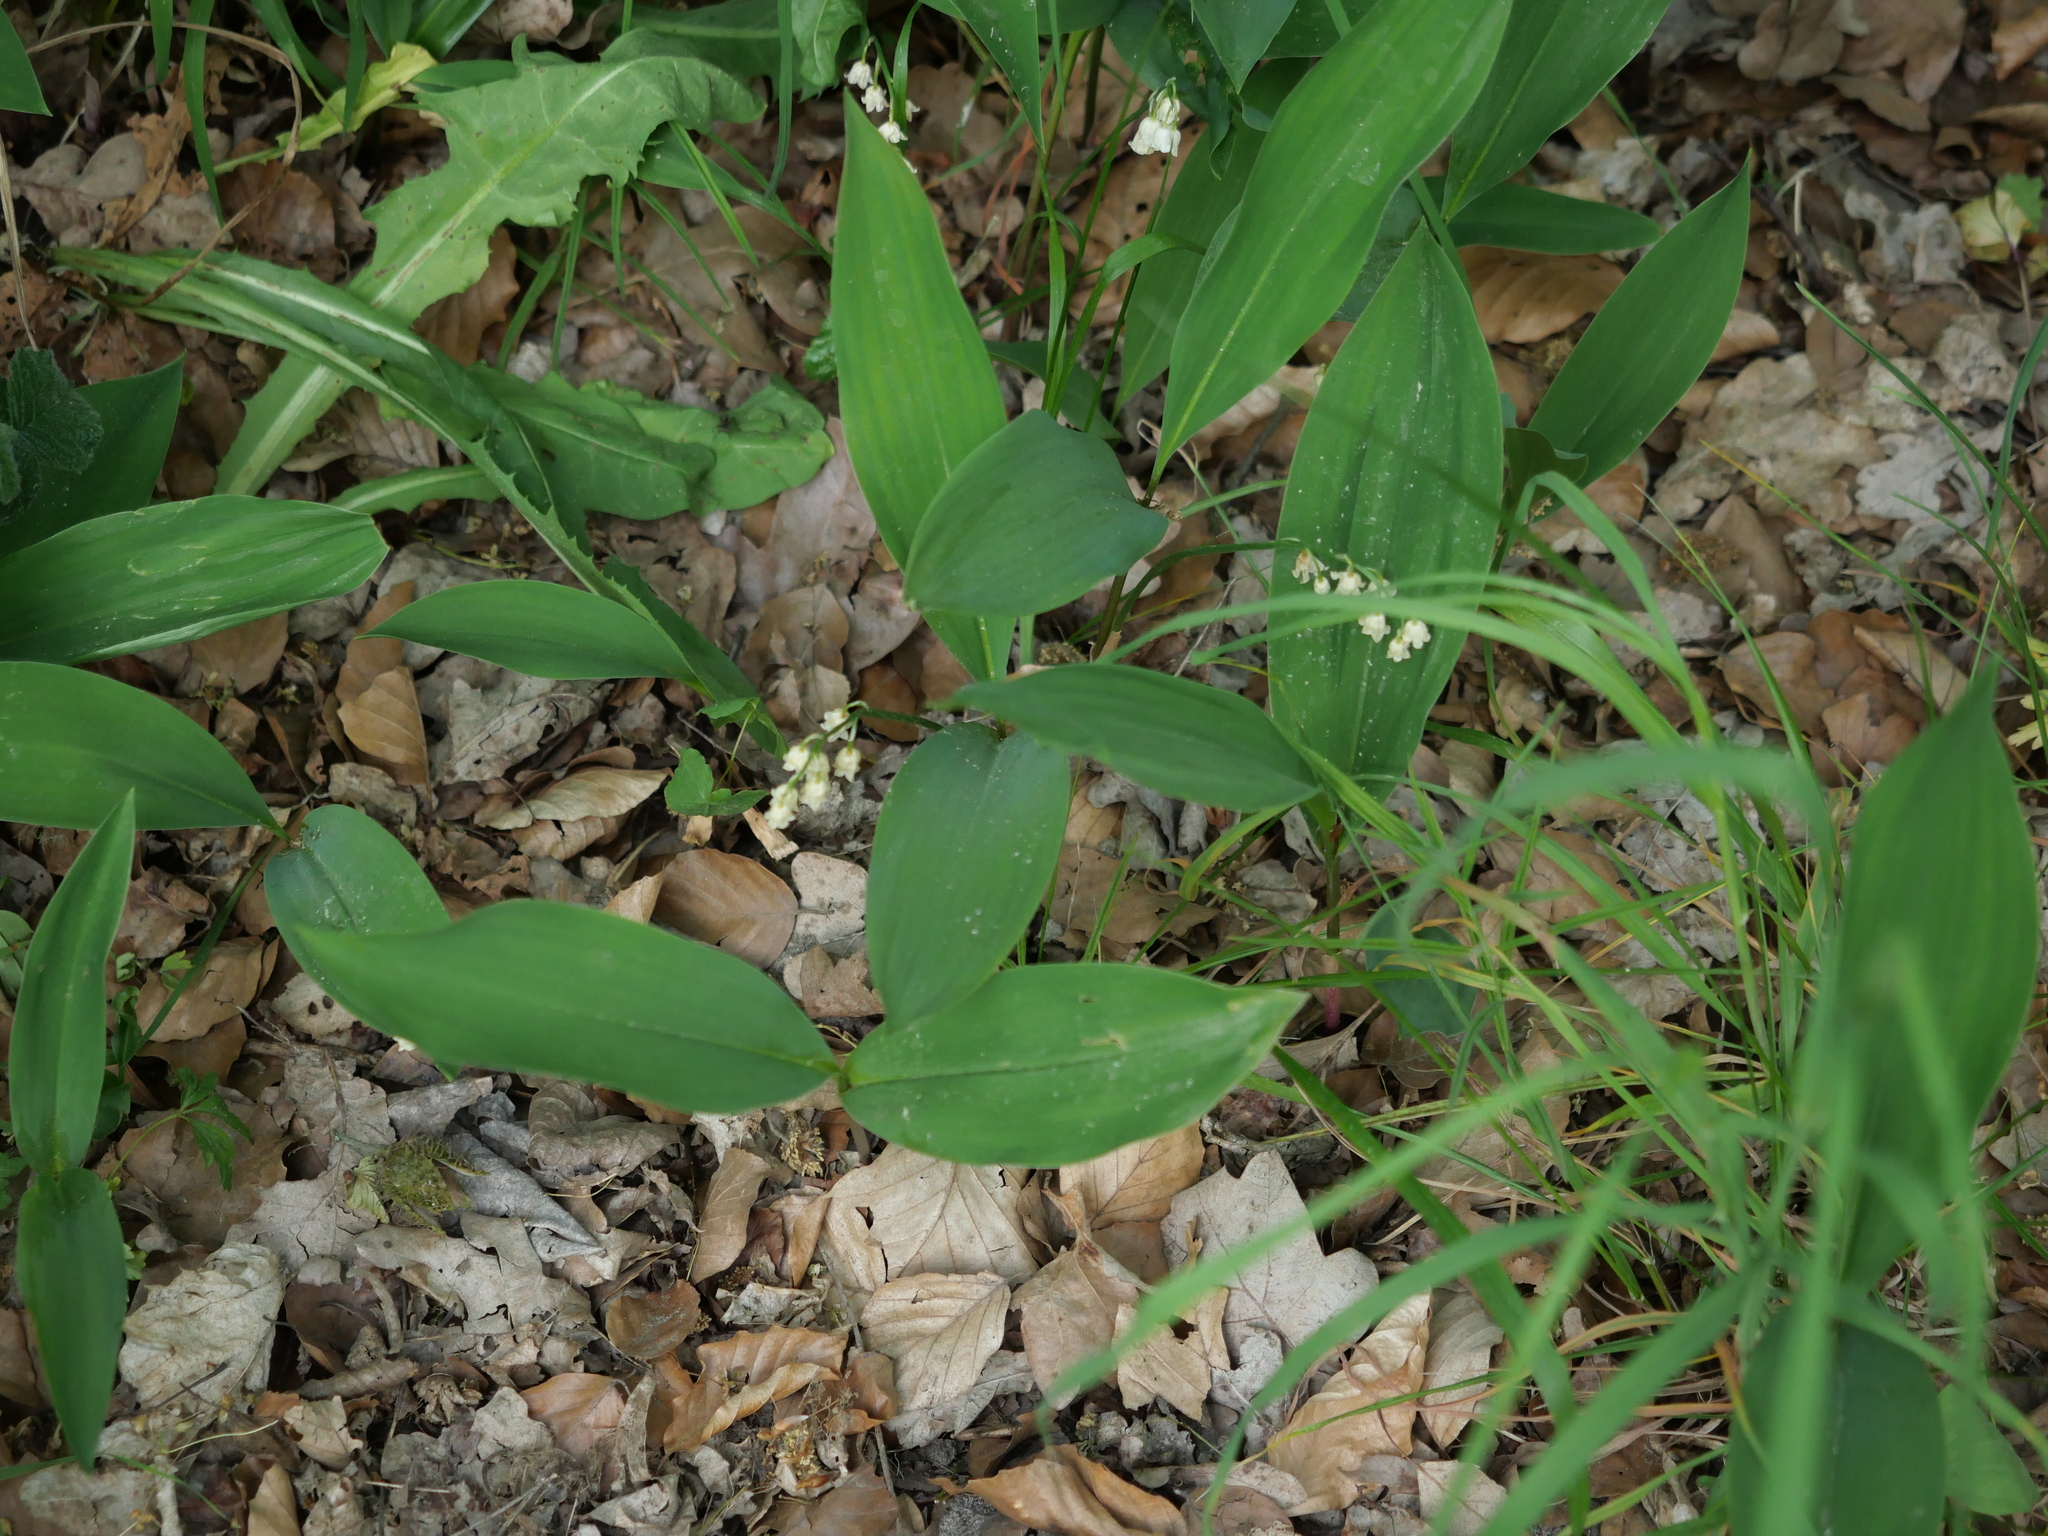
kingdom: Plantae
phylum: Tracheophyta
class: Liliopsida
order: Asparagales
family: Asparagaceae
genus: Convallaria
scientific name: Convallaria majalis
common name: Lily-of-the-valley
